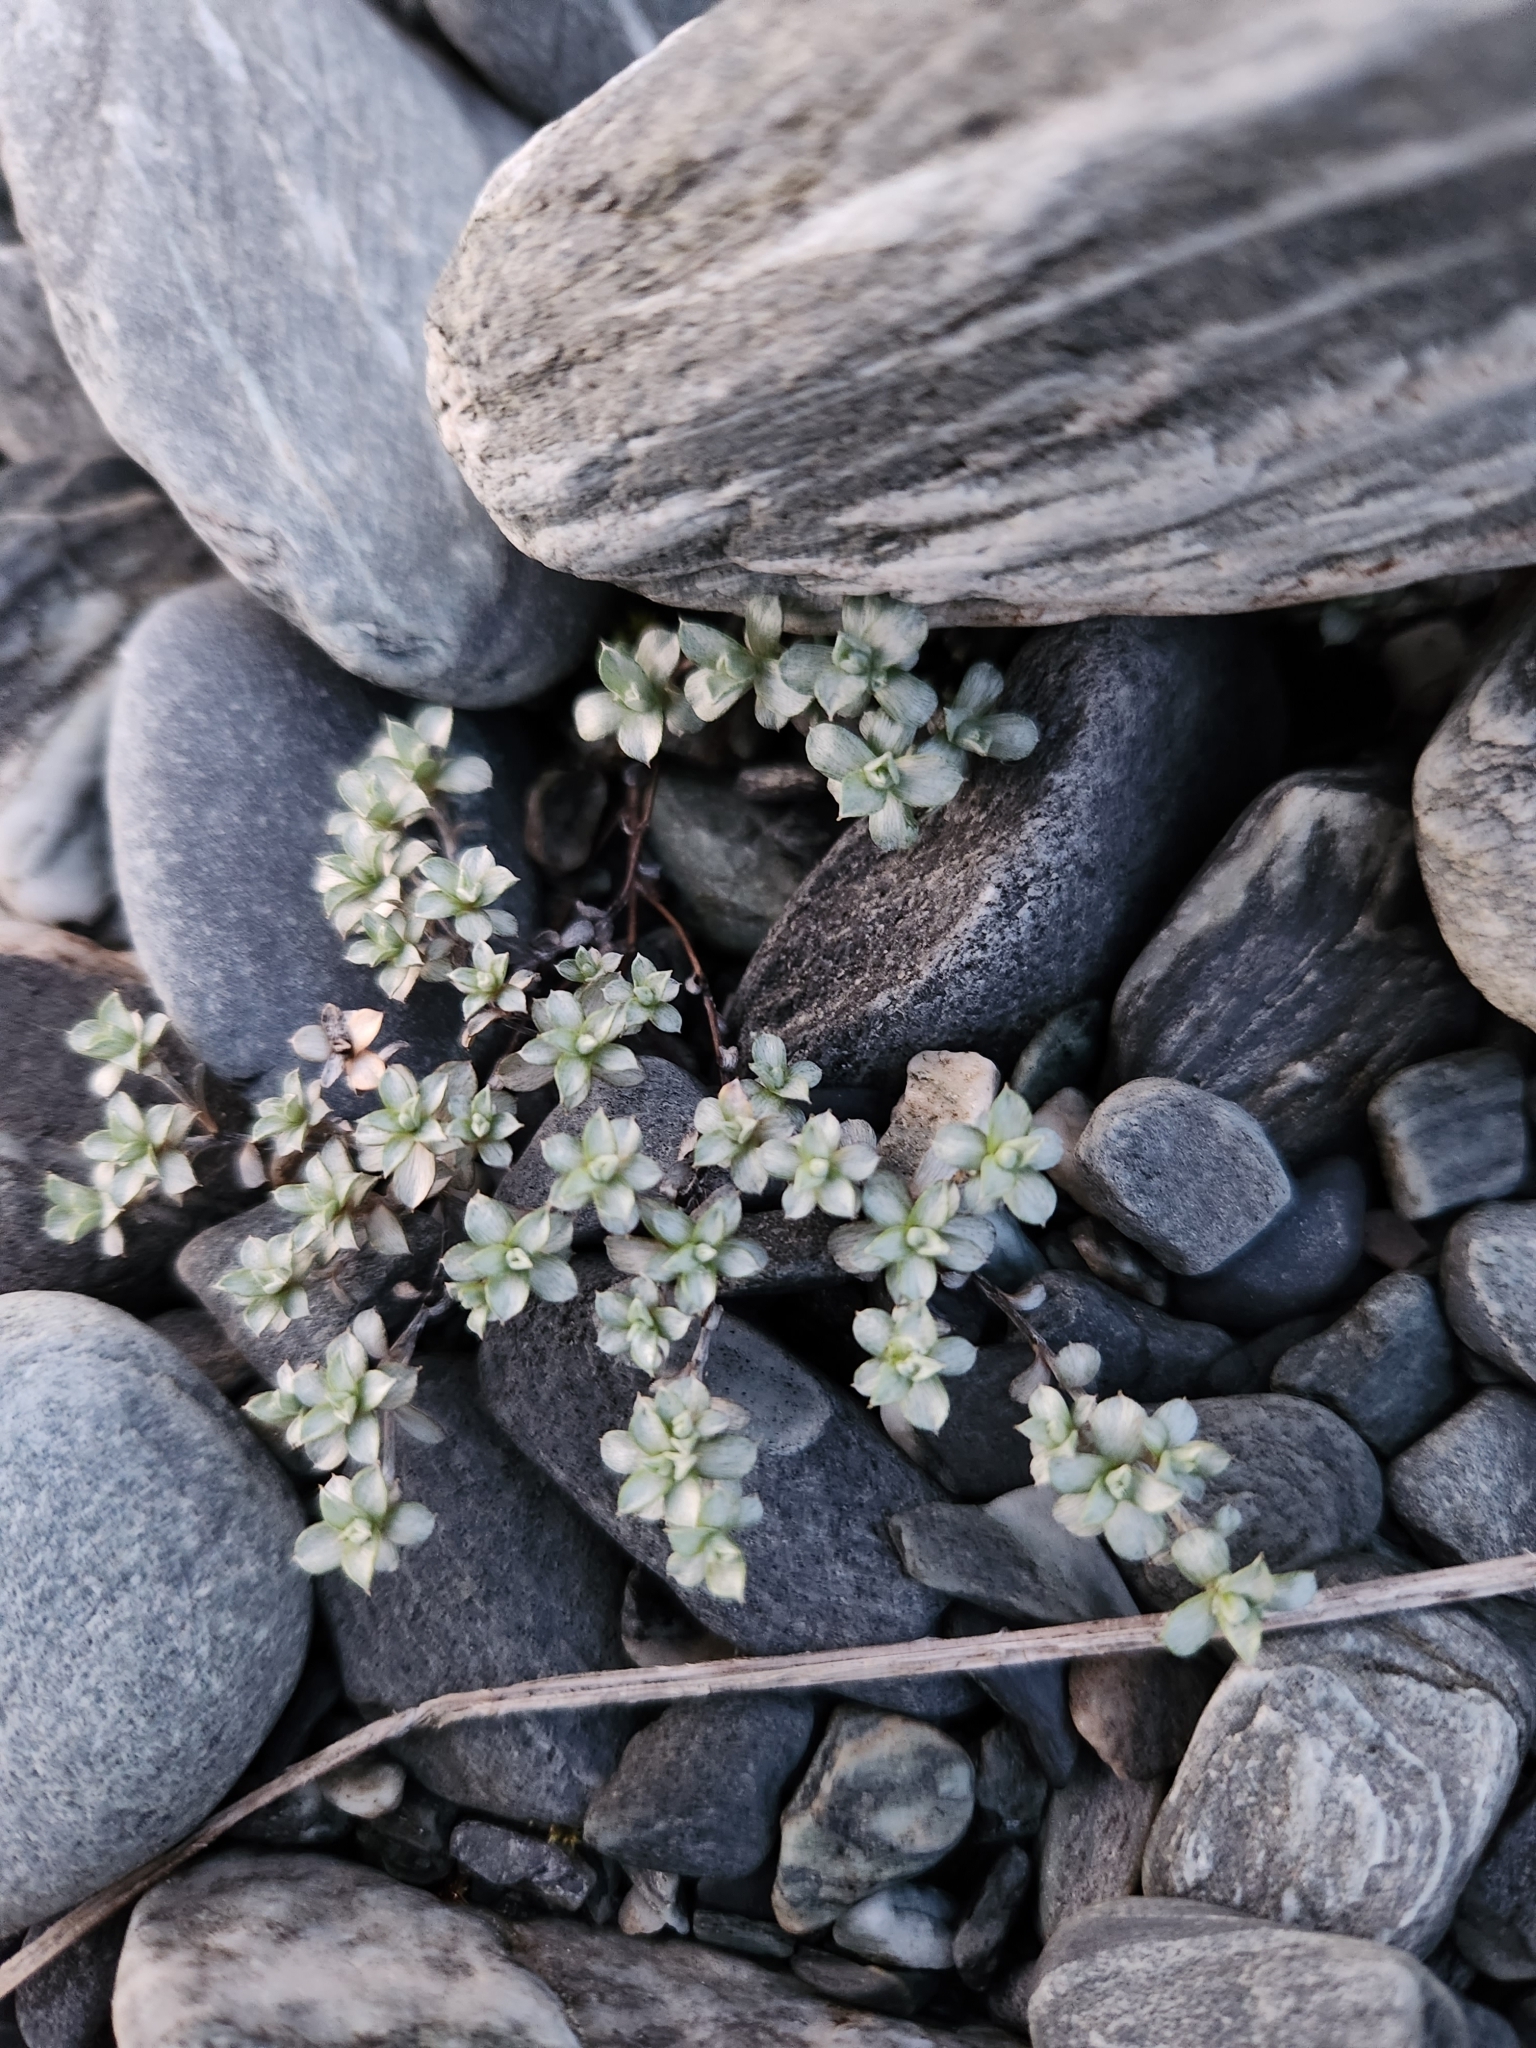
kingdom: Plantae
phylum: Tracheophyta
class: Magnoliopsida
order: Asterales
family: Asteraceae
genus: Anaphalioides
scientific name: Anaphalioides bellidioides
